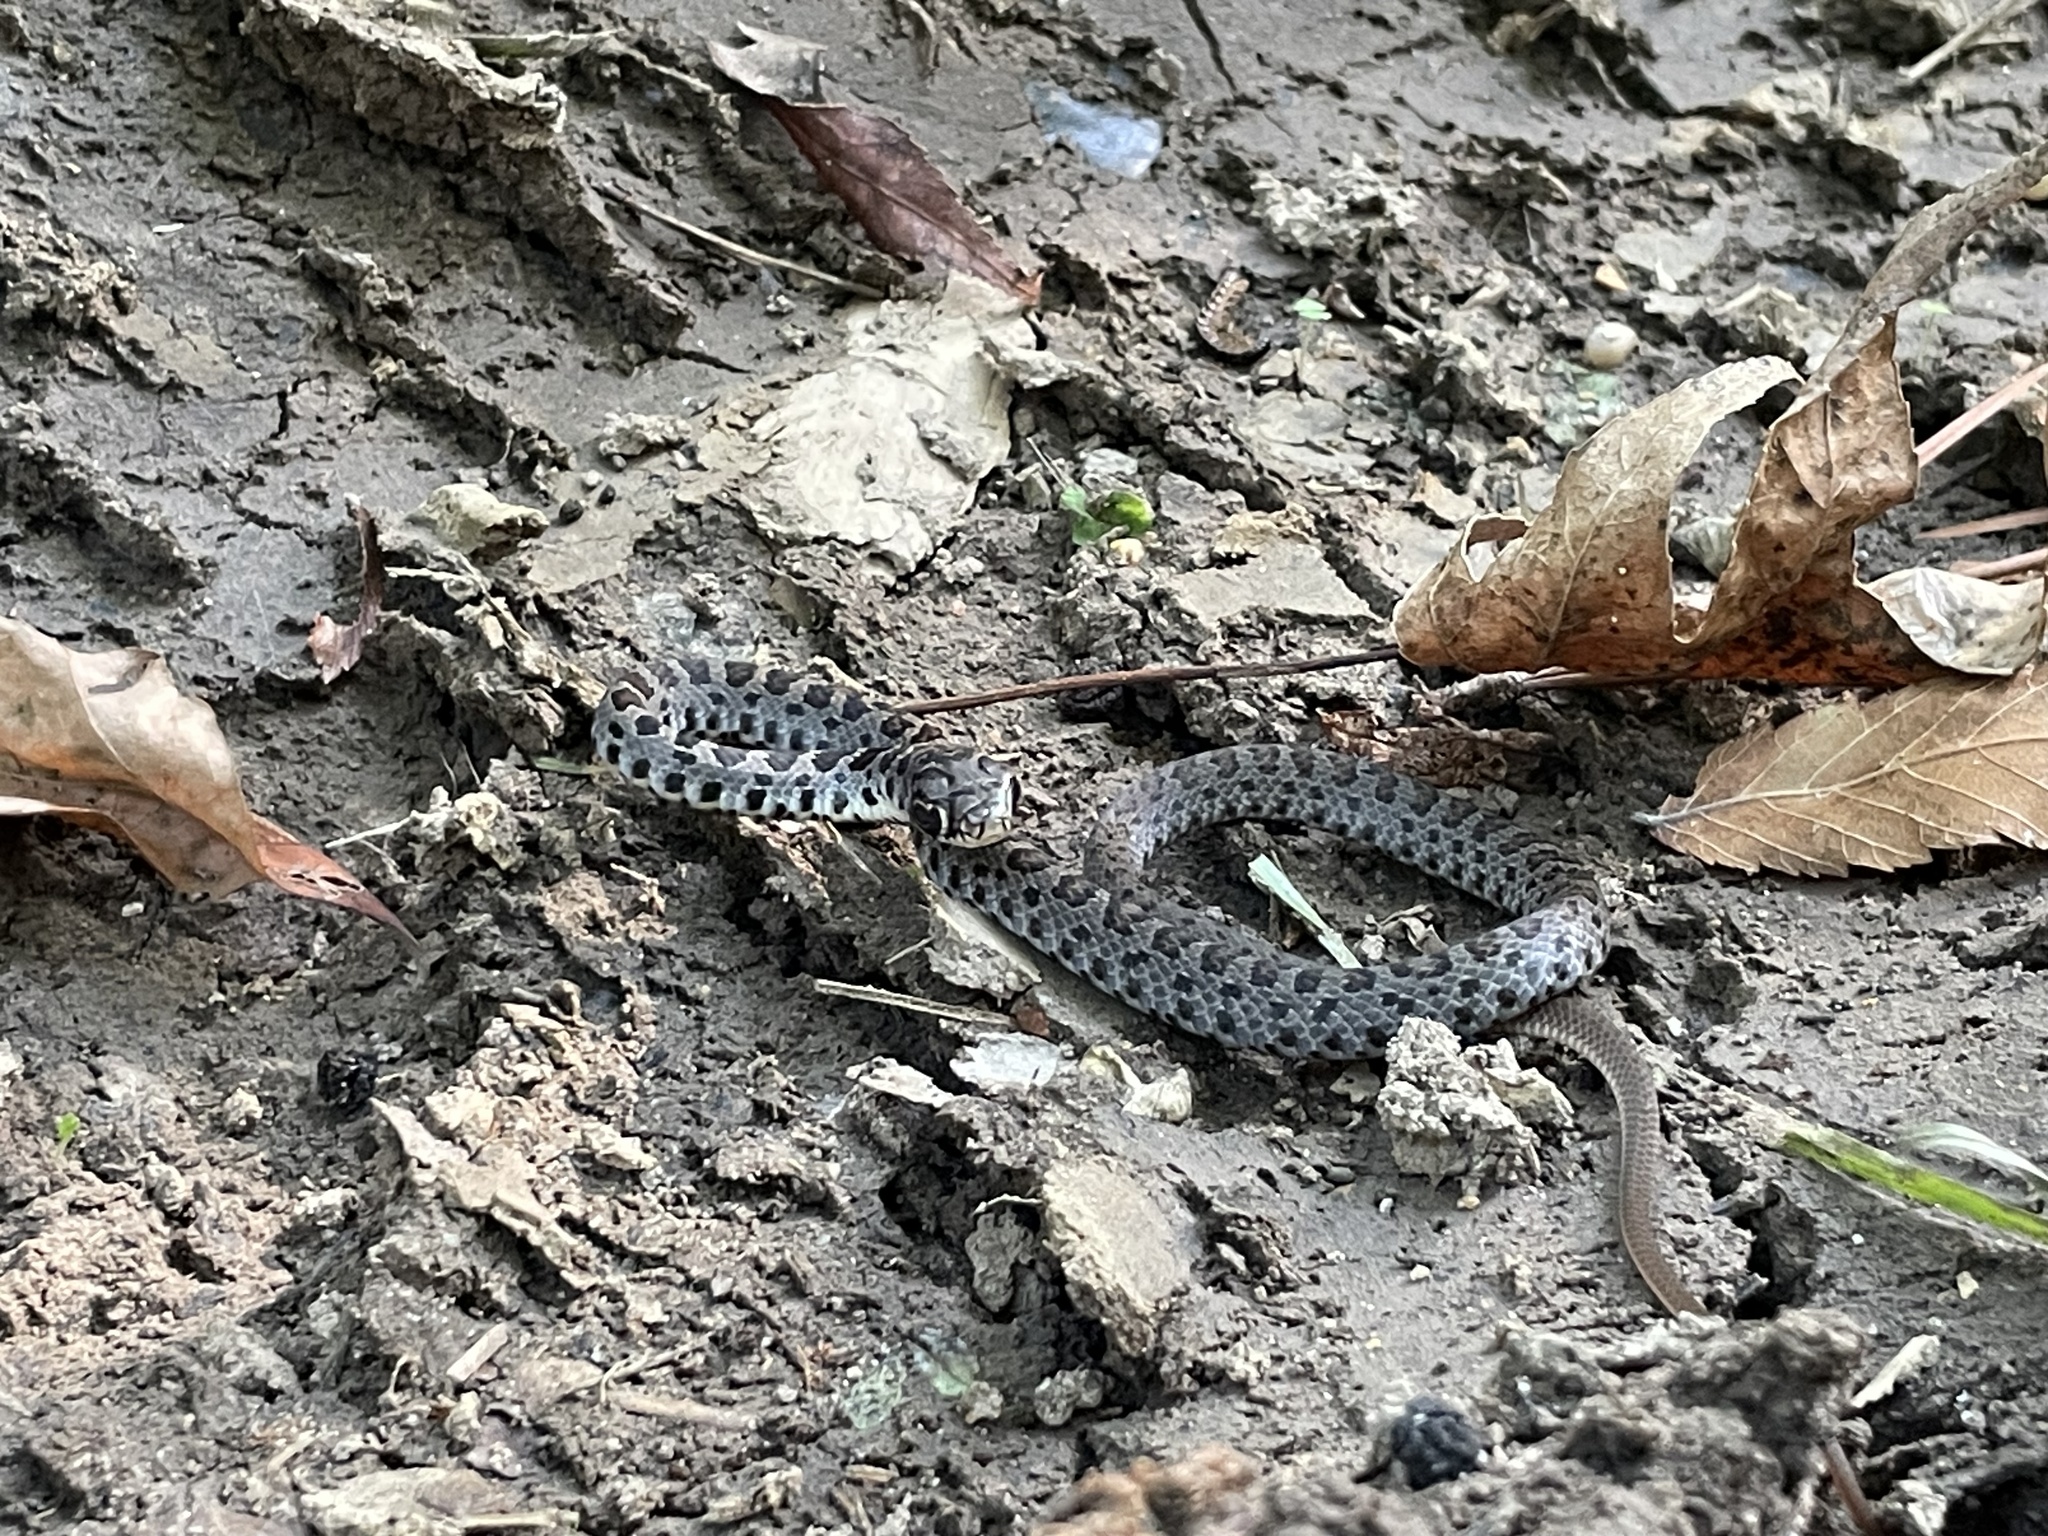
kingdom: Animalia
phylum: Chordata
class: Squamata
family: Colubridae
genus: Coluber
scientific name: Coluber constrictor
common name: Eastern racer
